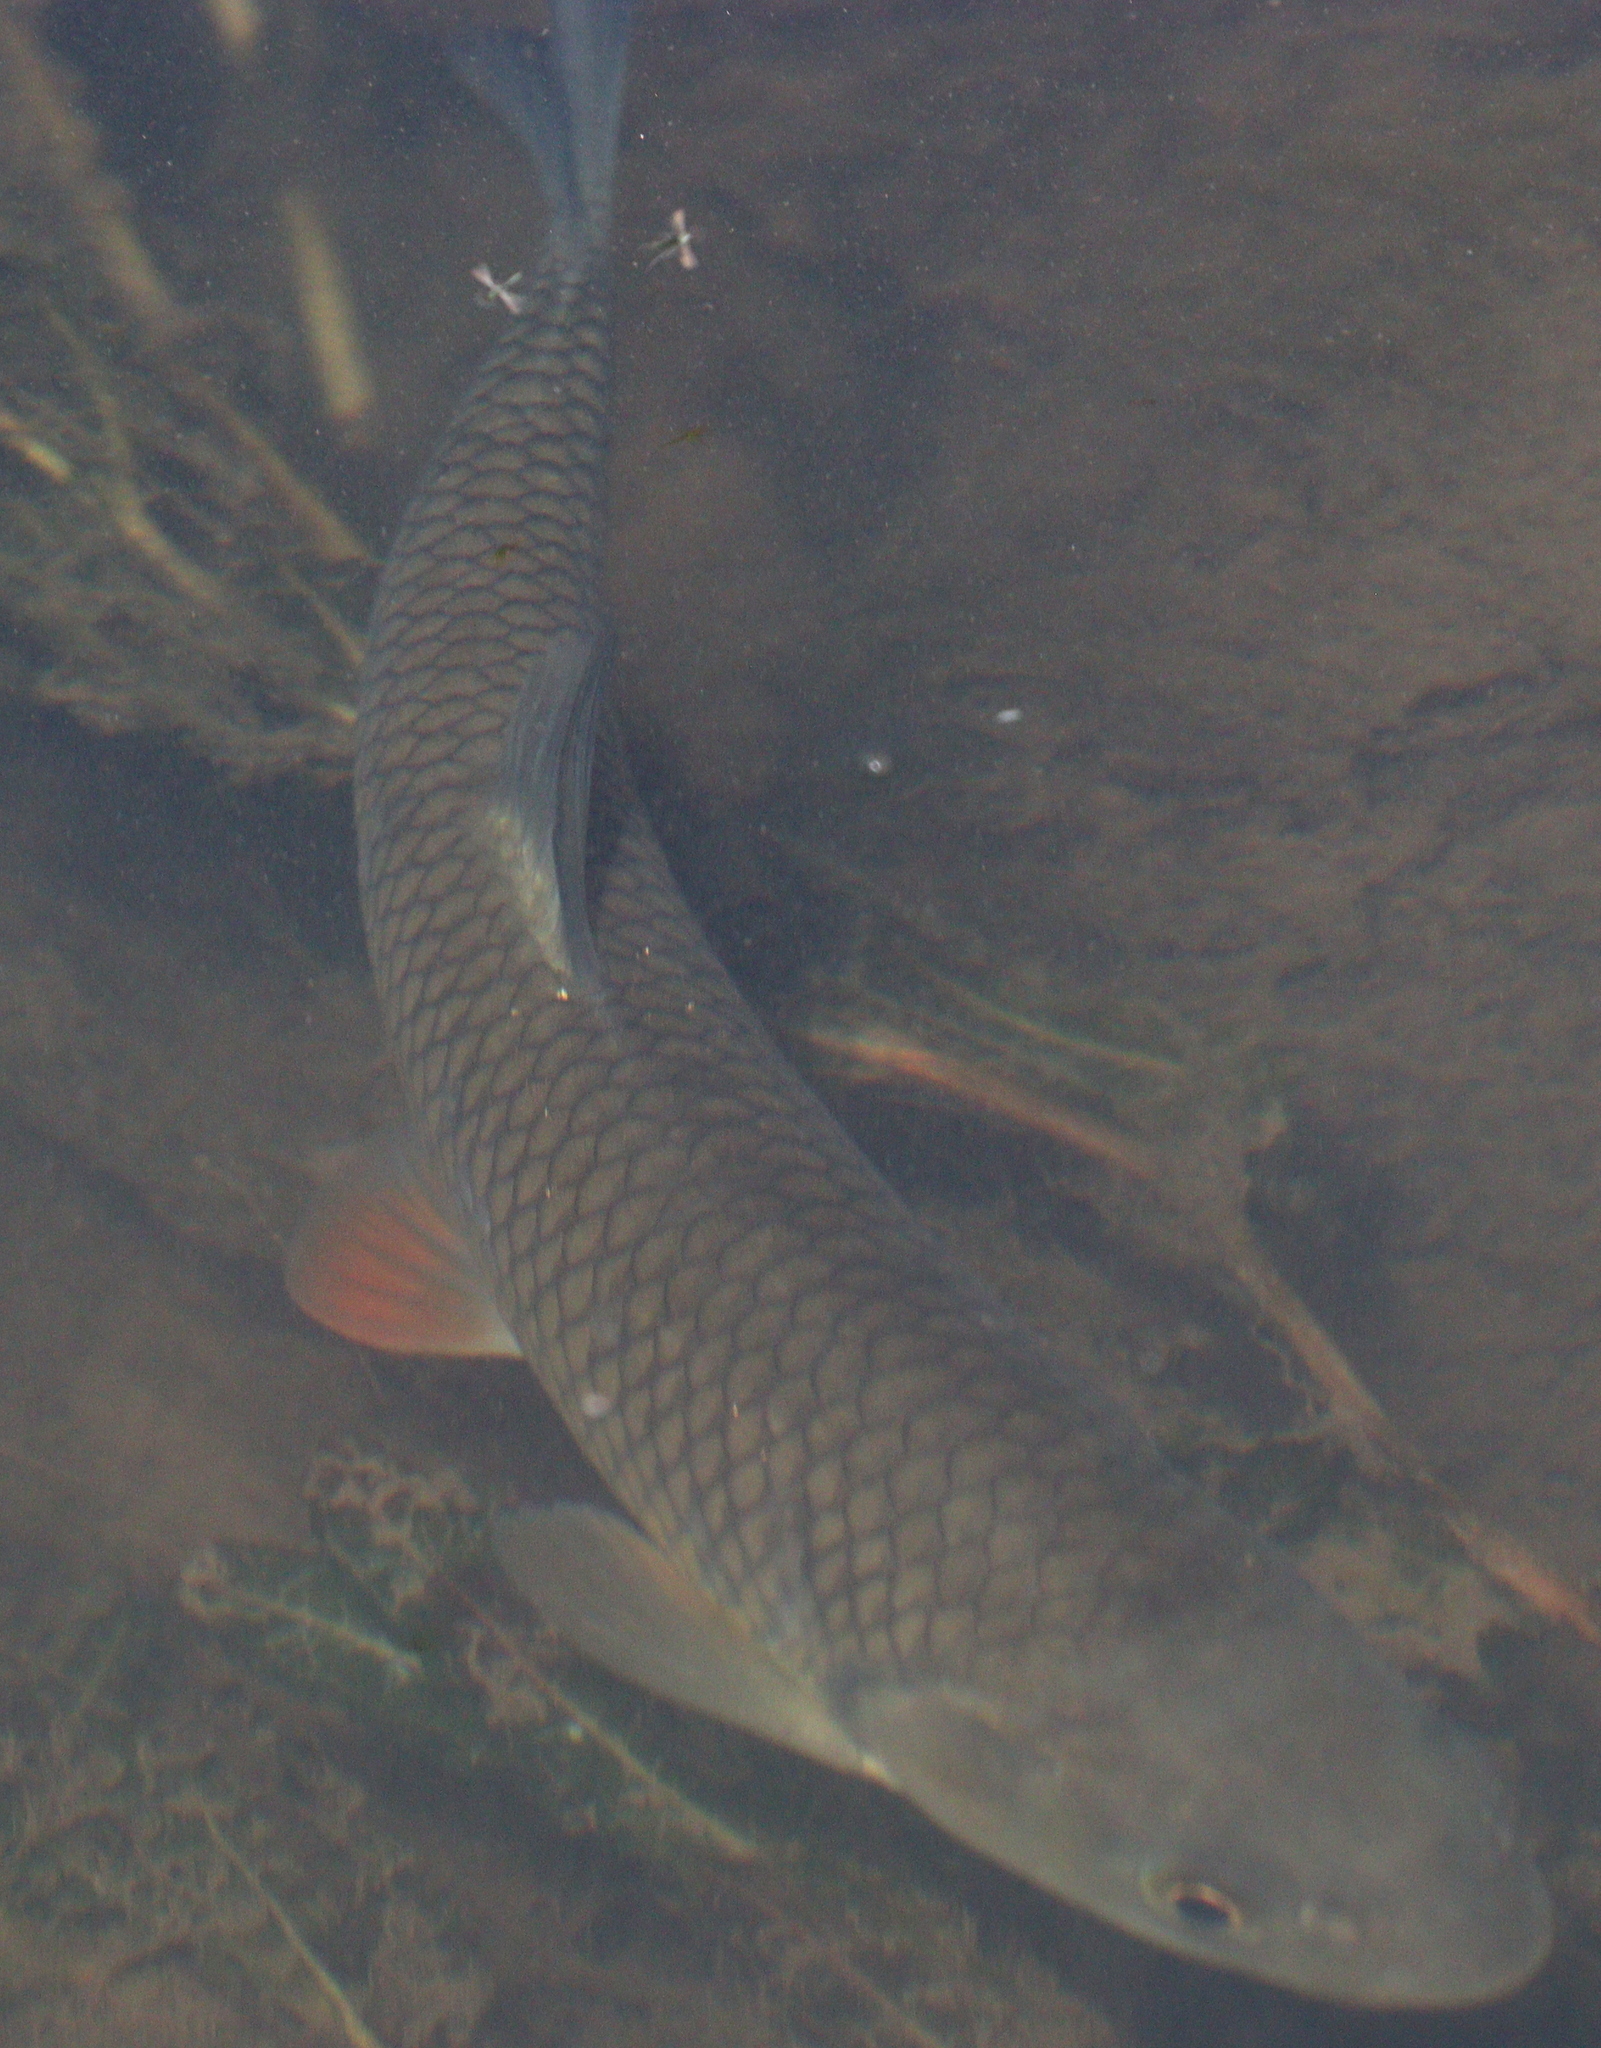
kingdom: Animalia
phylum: Chordata
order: Cypriniformes
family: Cyprinidae
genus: Squalius
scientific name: Squalius cephalus
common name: Chub
